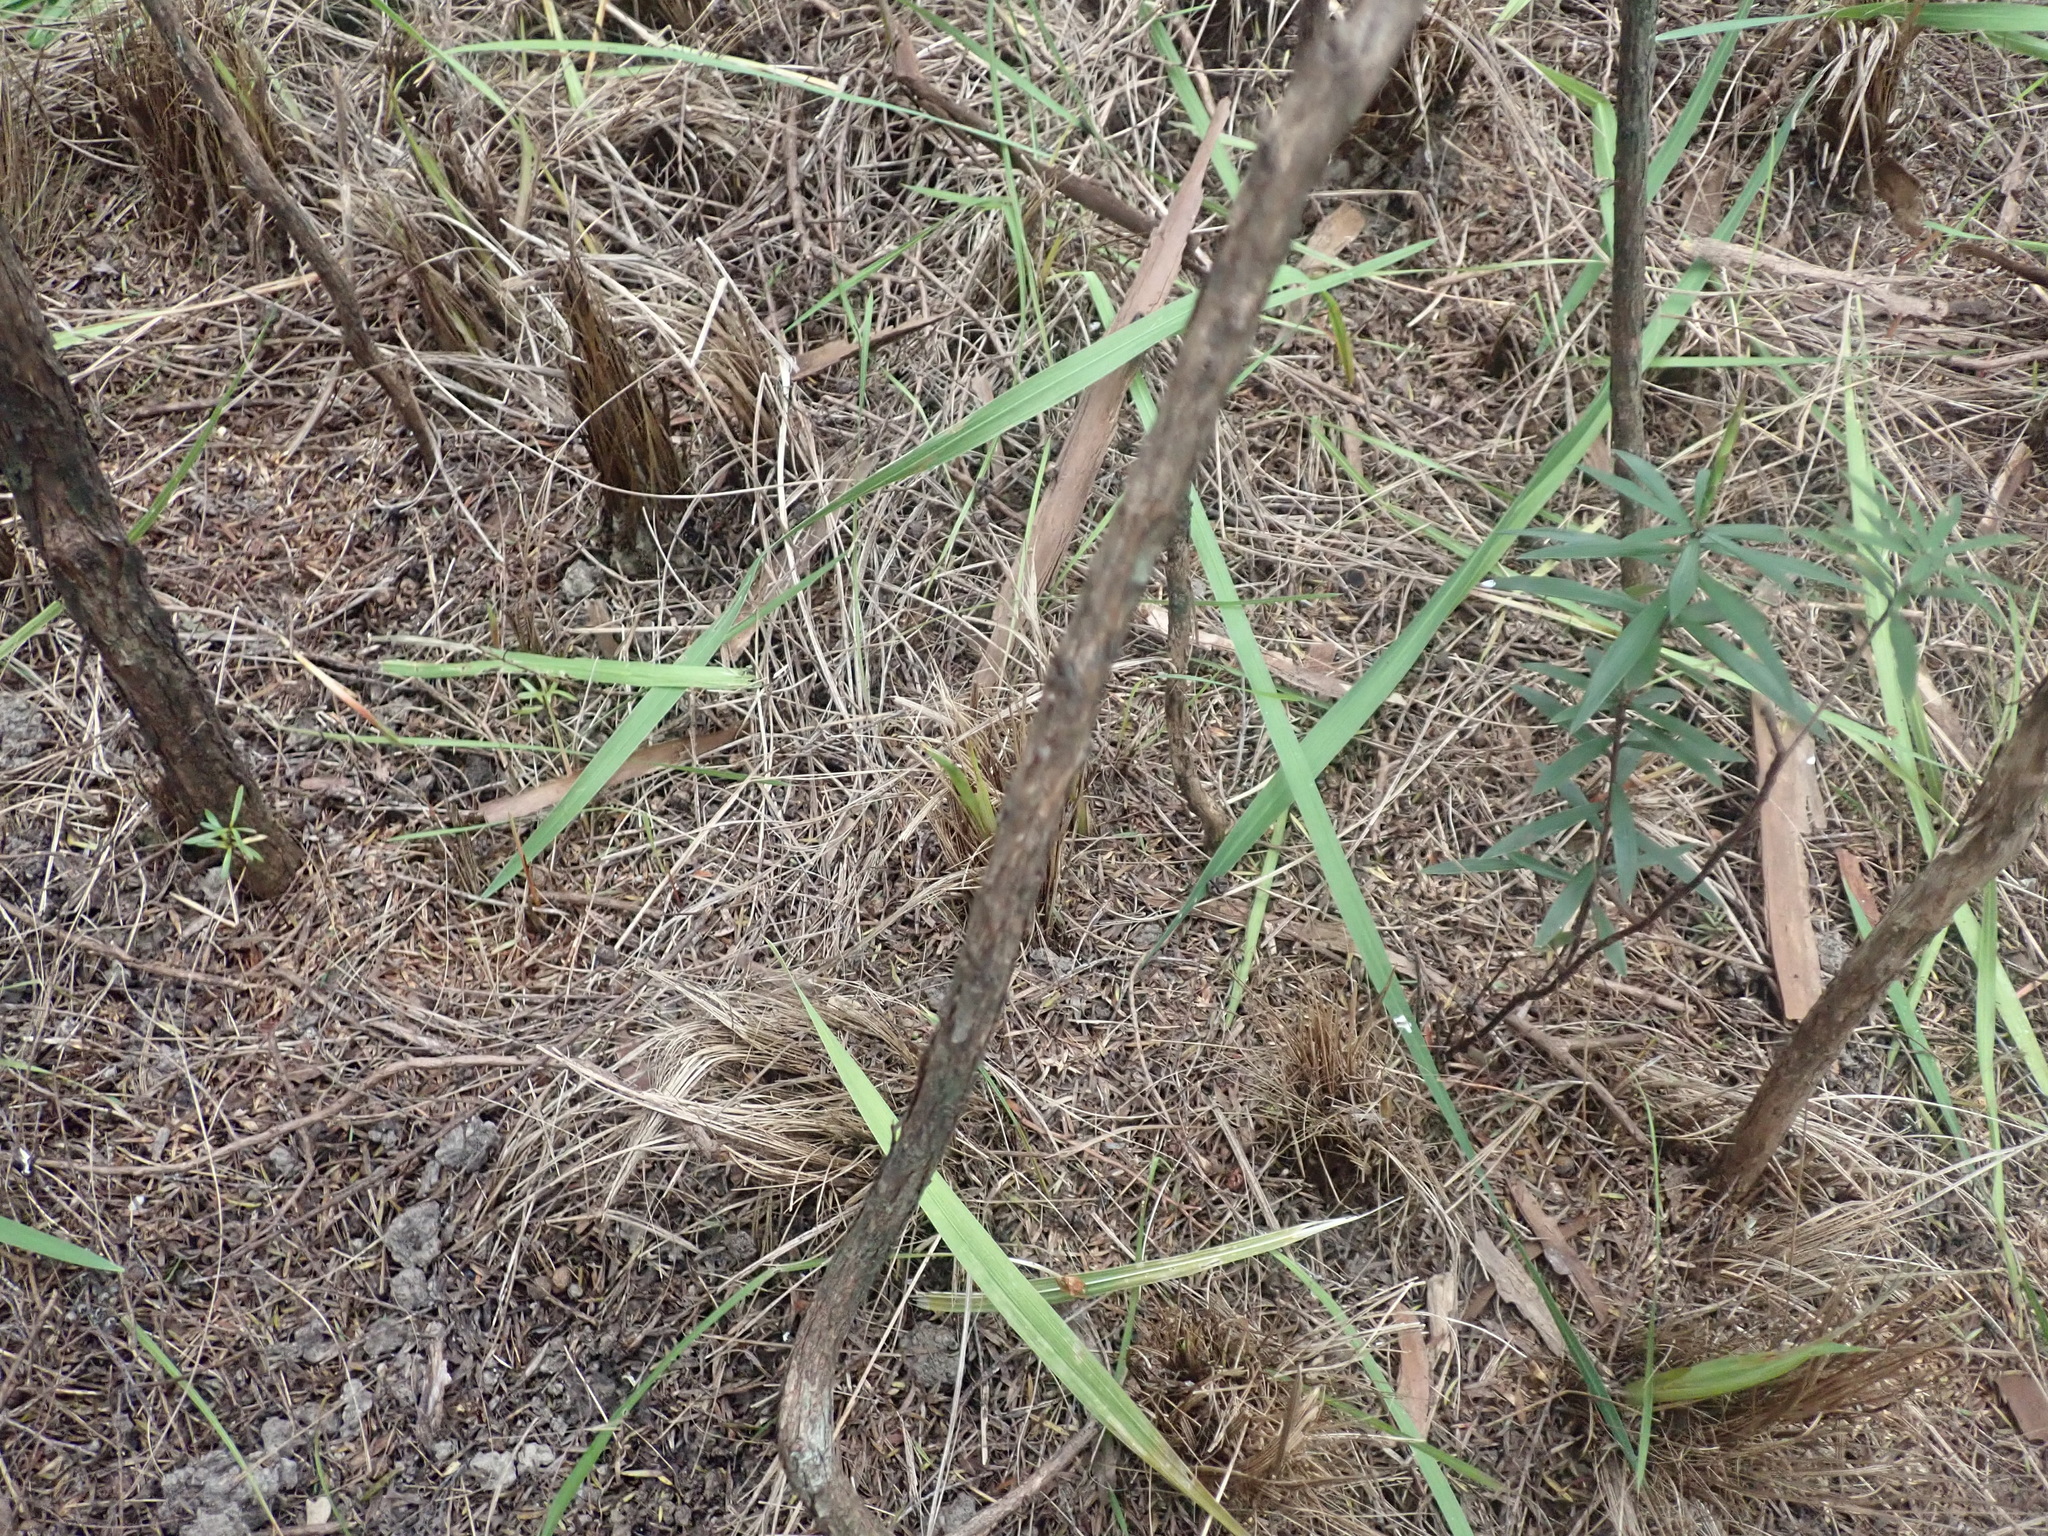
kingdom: Plantae
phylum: Tracheophyta
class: Magnoliopsida
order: Ericales
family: Ericaceae
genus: Leucopogon
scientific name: Leucopogon fasciculatus
